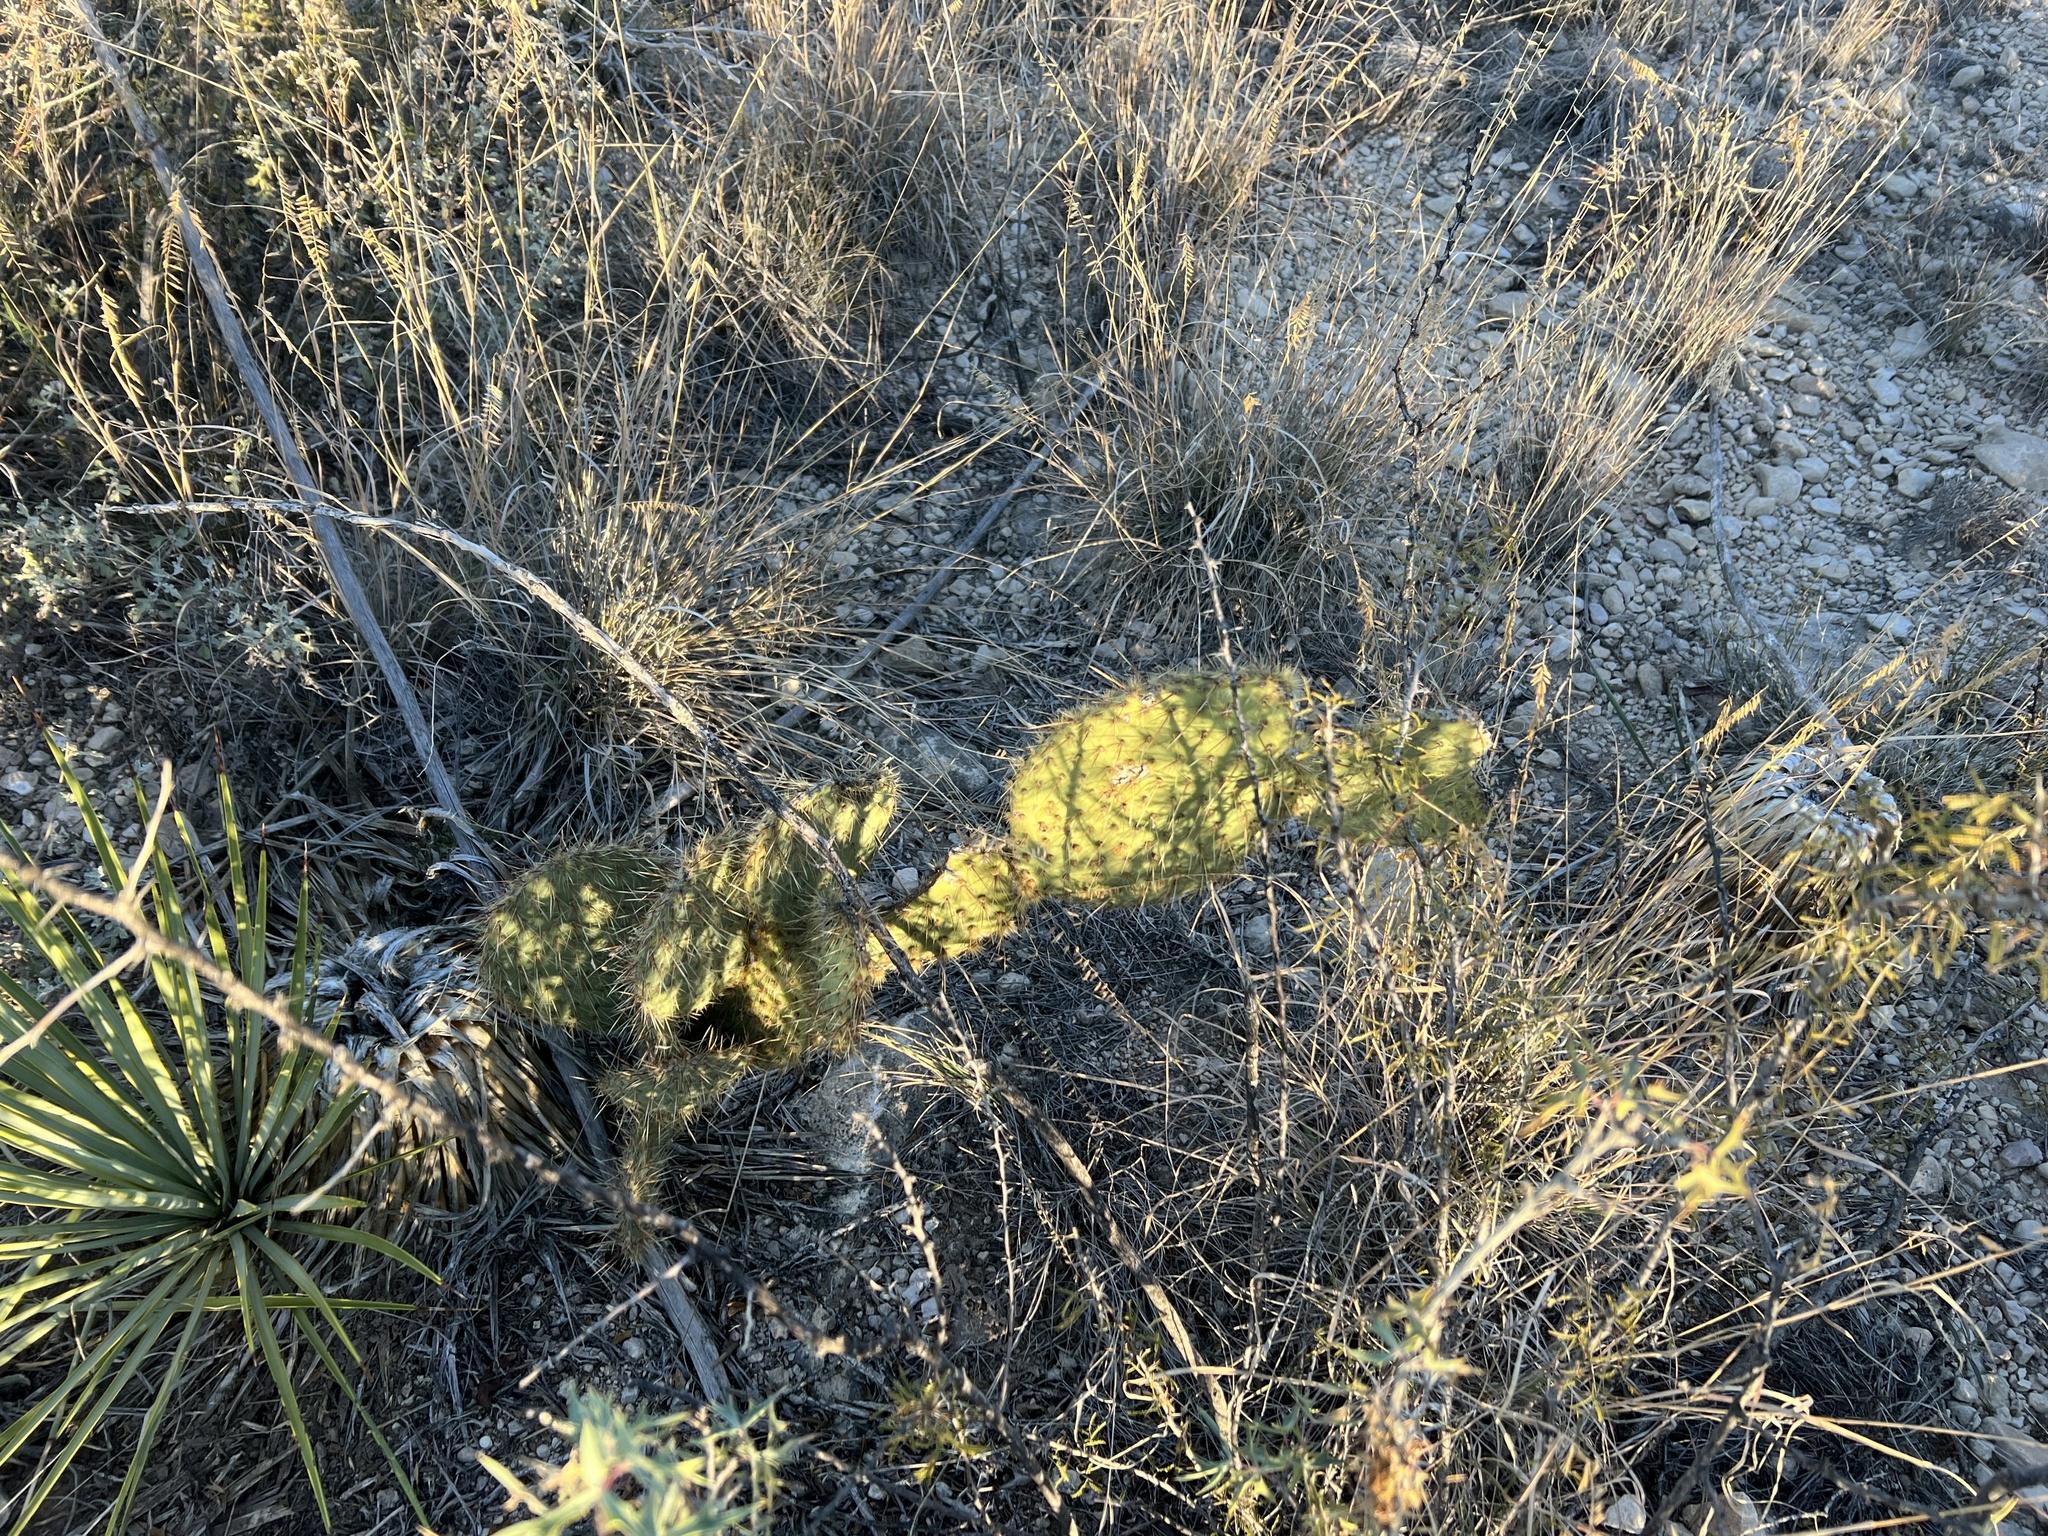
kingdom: Plantae
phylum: Tracheophyta
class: Magnoliopsida
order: Caryophyllales
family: Cactaceae
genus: Opuntia
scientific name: Opuntia strigil
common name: Marble-fruit prickly-pear
